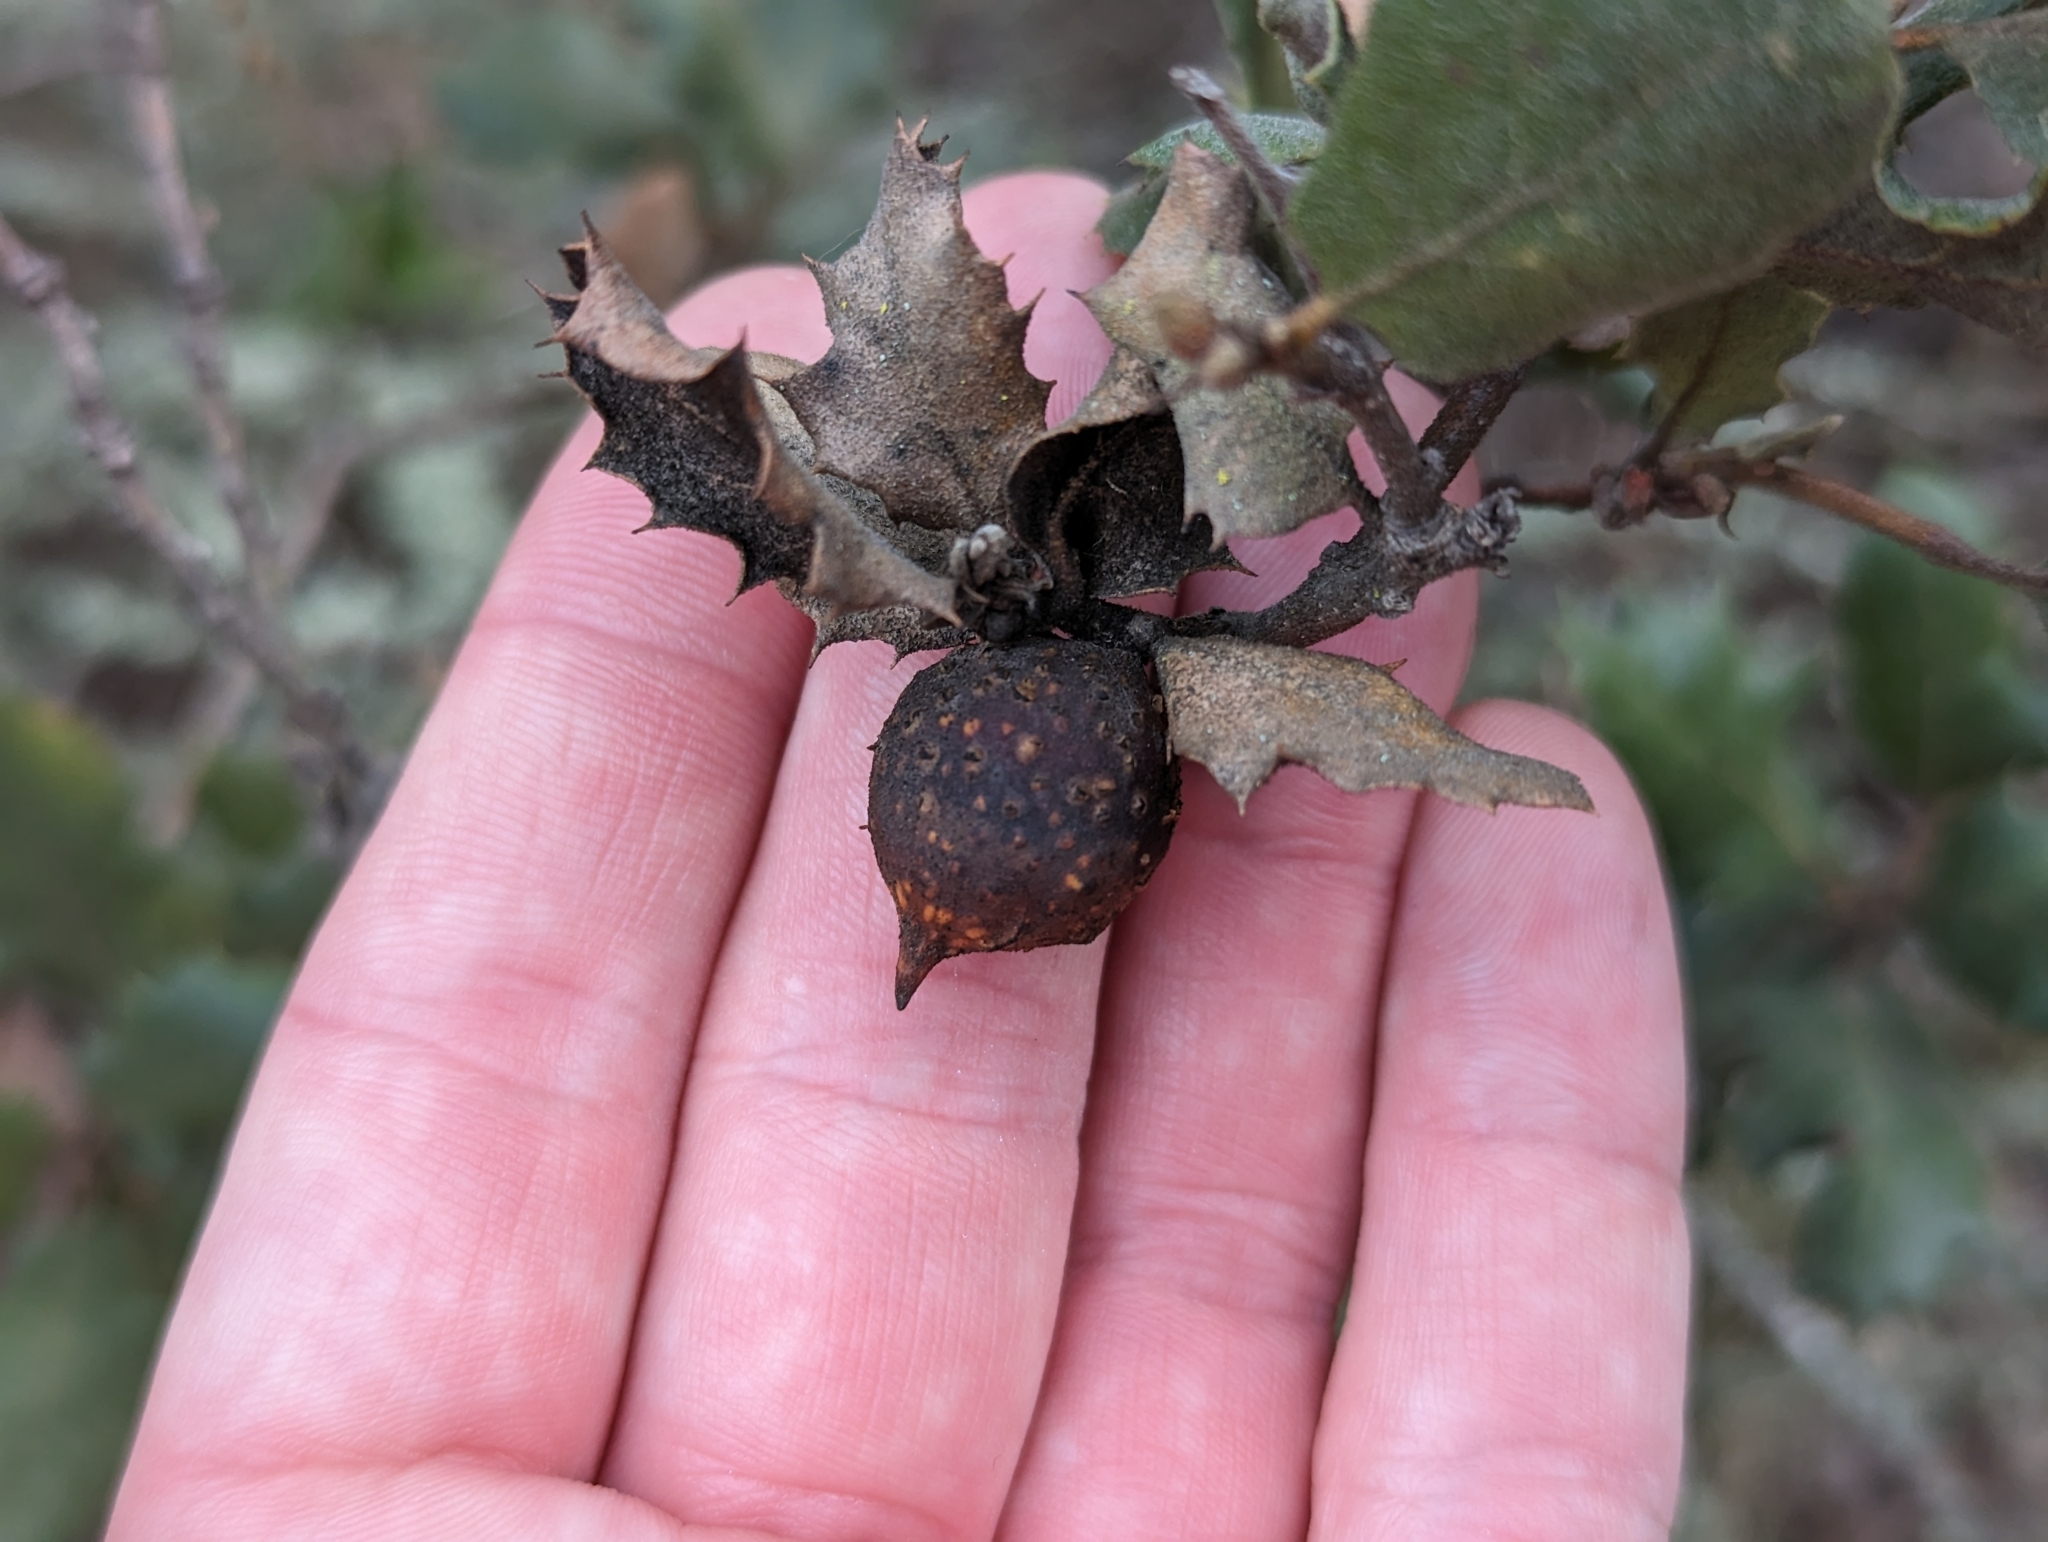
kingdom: Plantae
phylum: Tracheophyta
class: Magnoliopsida
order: Fagales
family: Fagaceae
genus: Quercus
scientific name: Quercus durata
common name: Leather oak
